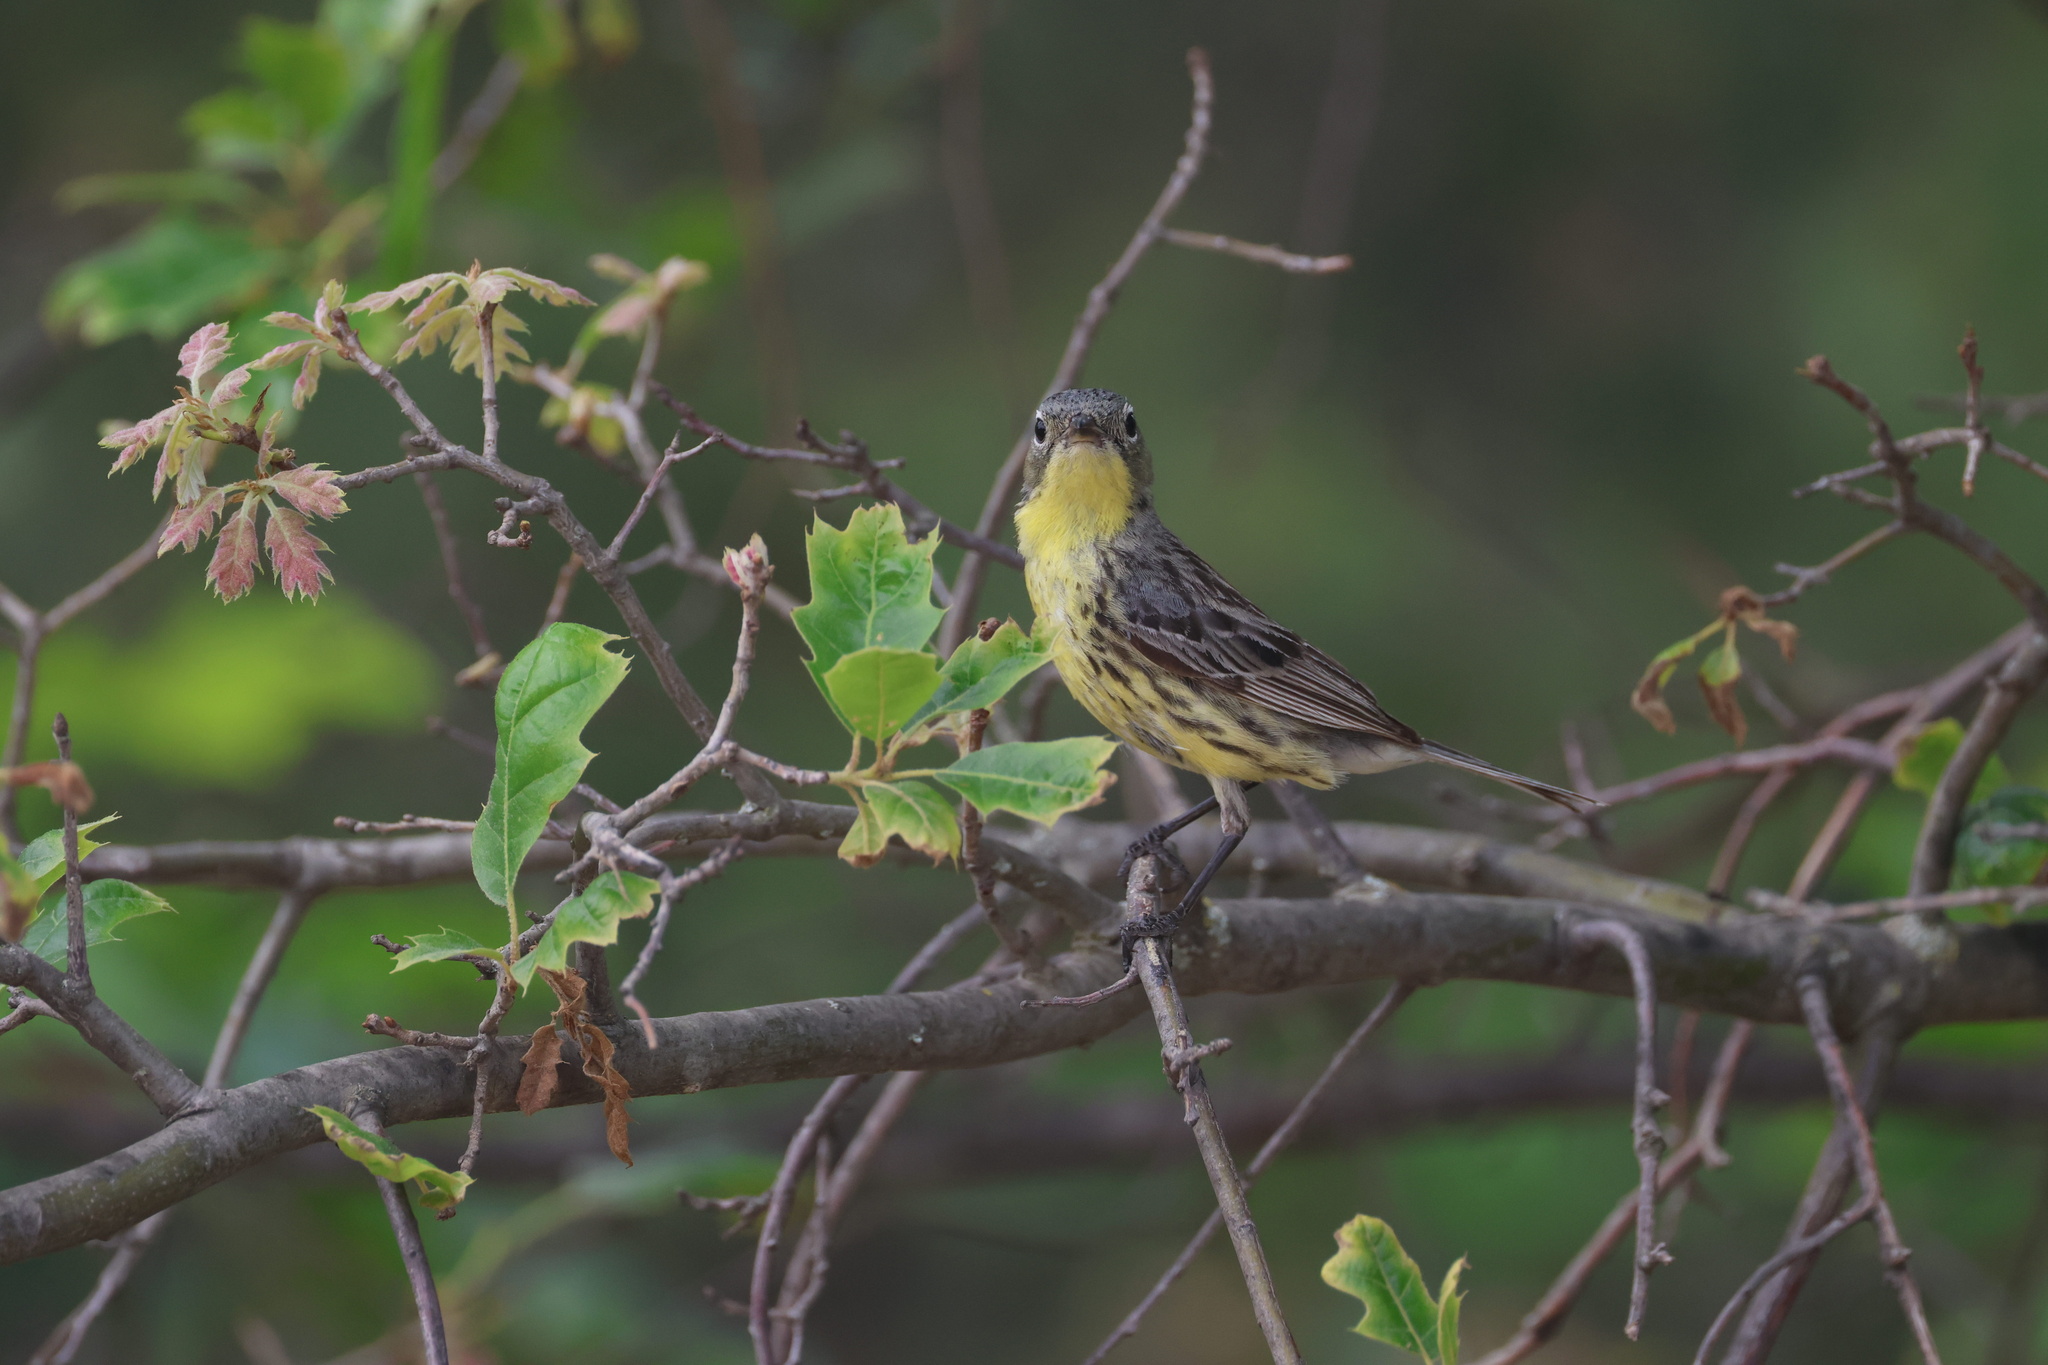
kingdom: Animalia
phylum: Chordata
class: Aves
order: Passeriformes
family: Parulidae
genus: Setophaga
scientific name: Setophaga kirtlandii
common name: Kirtland's warbler
